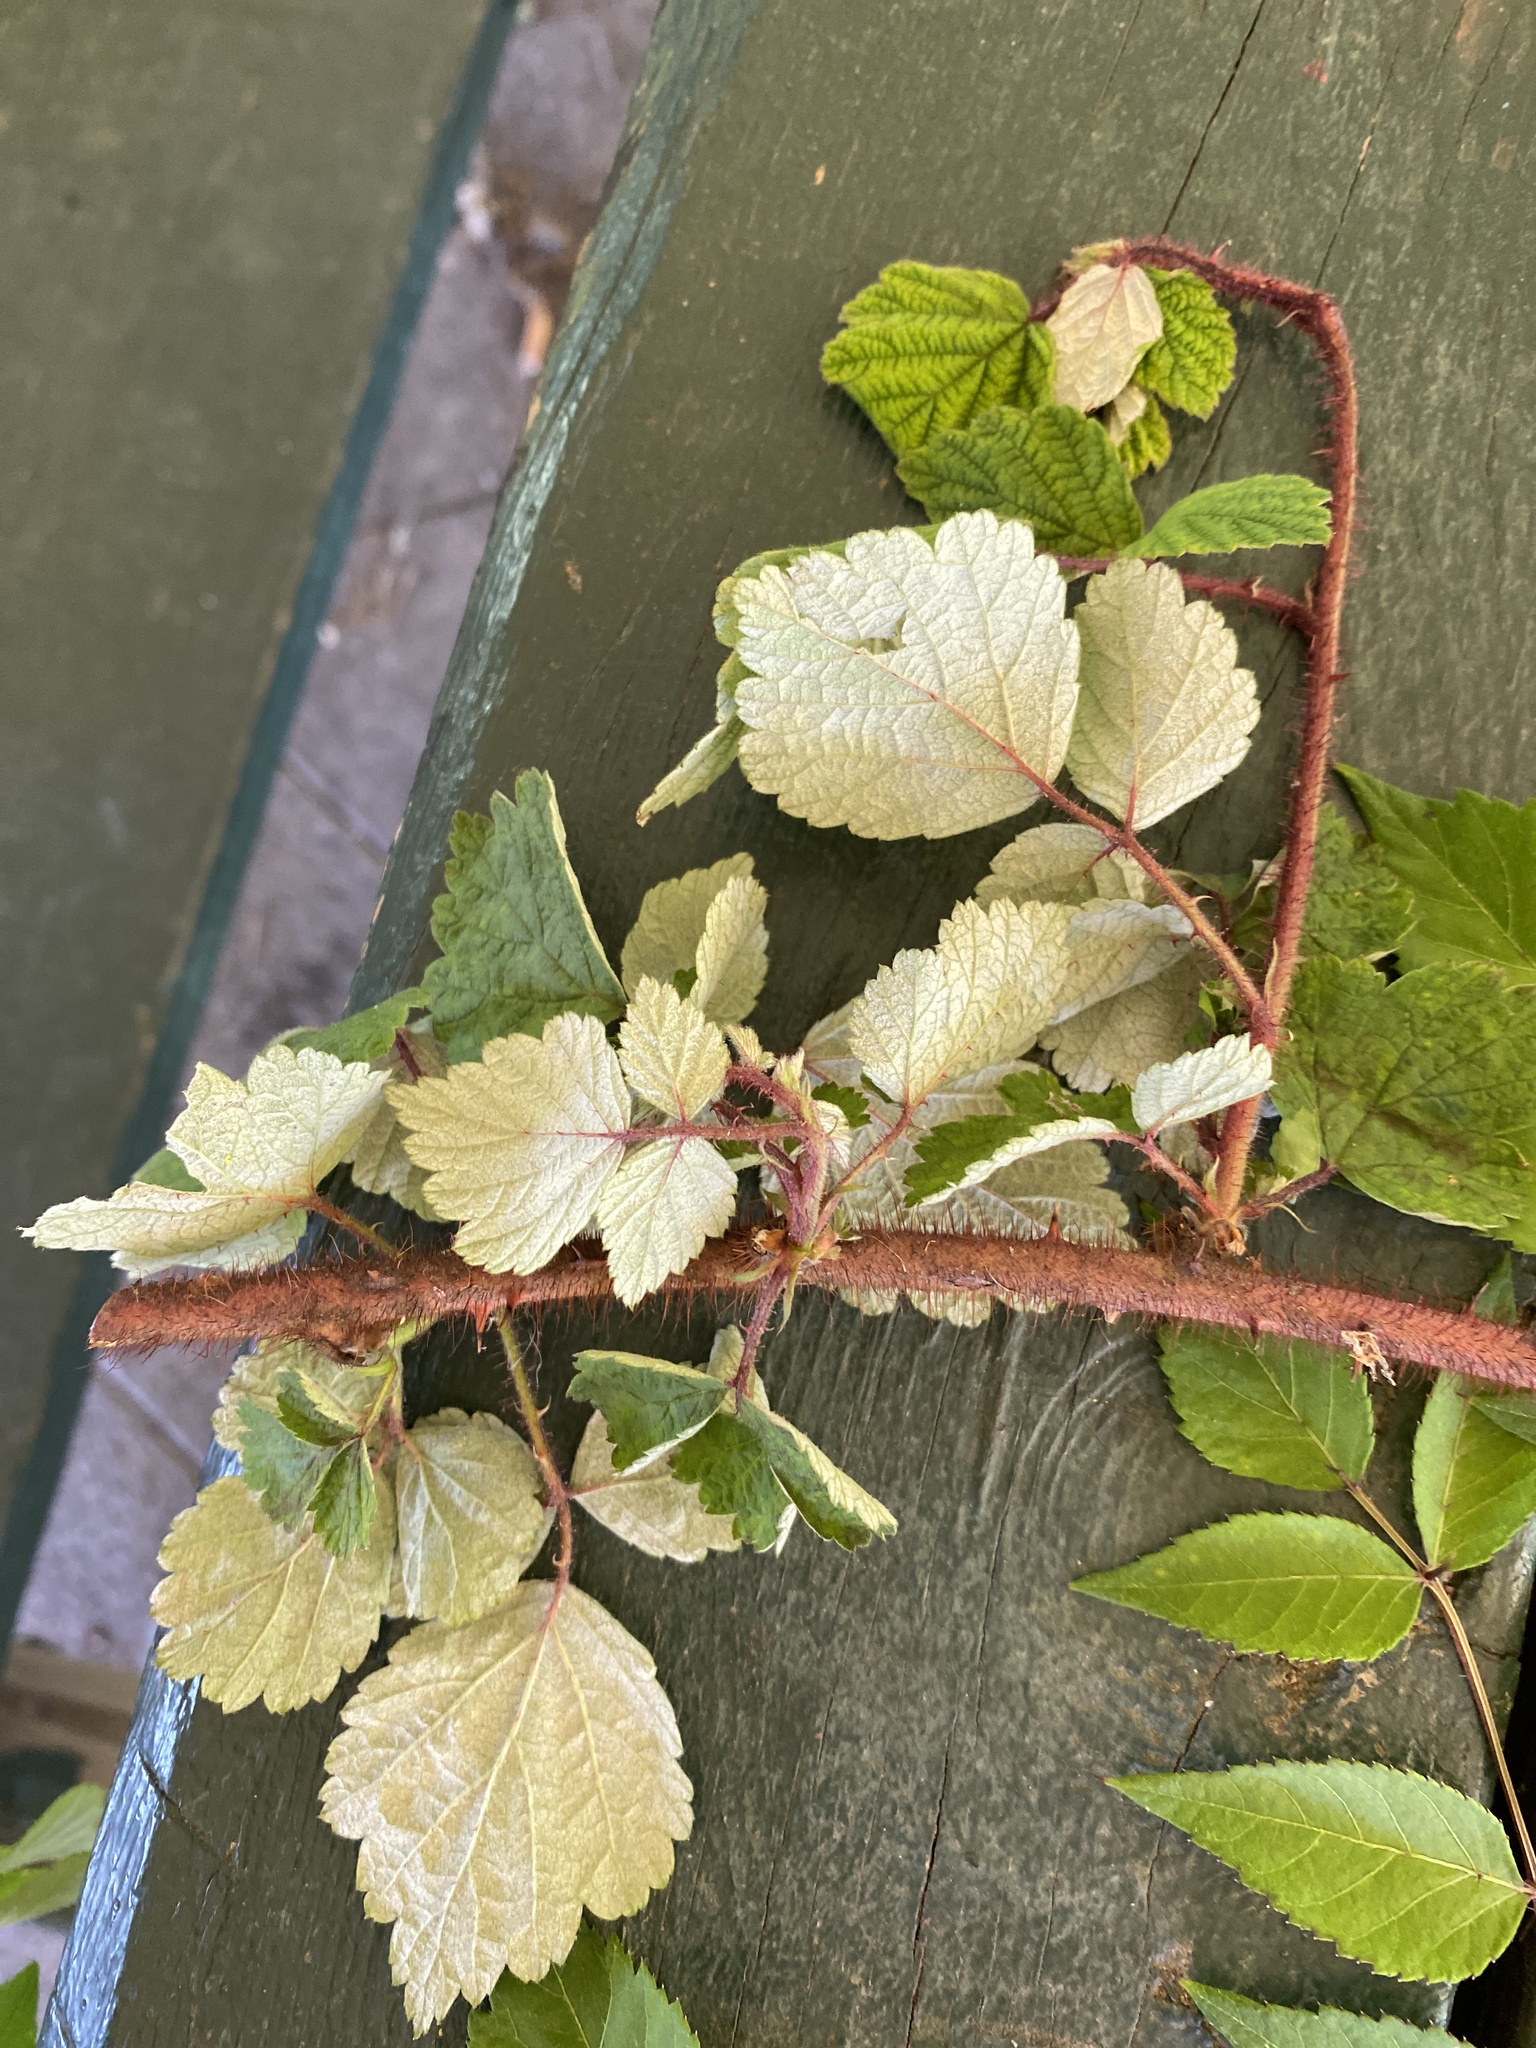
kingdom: Plantae
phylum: Tracheophyta
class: Magnoliopsida
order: Rosales
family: Rosaceae
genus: Rubus
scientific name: Rubus phoenicolasius
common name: Japanese wineberry
